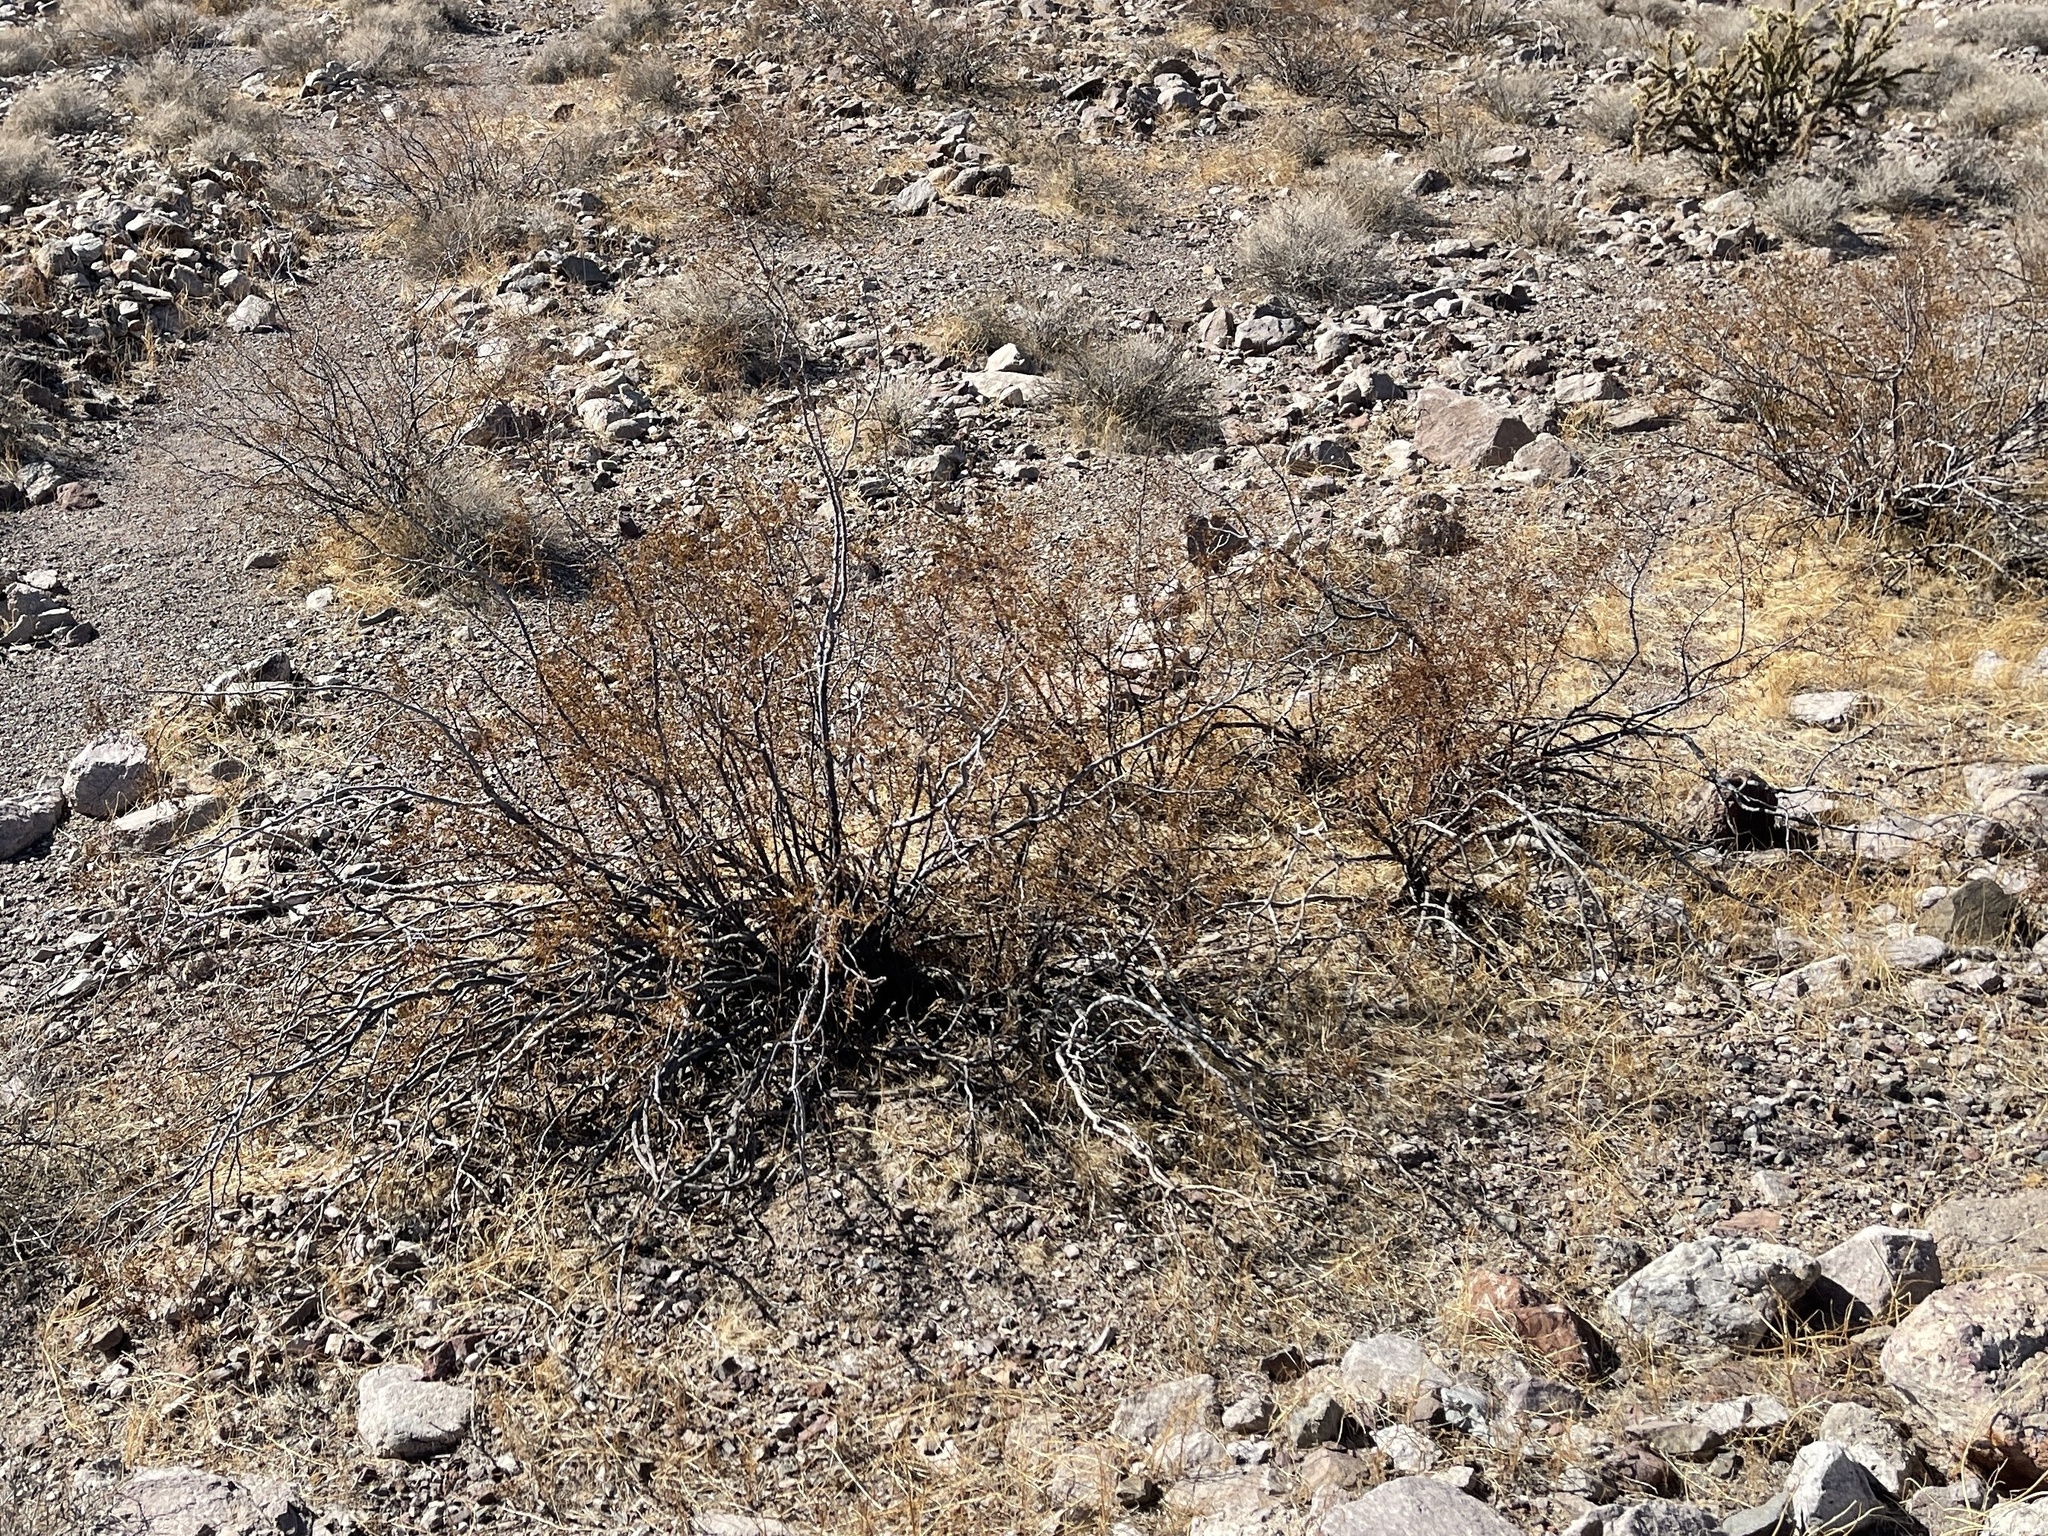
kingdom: Plantae
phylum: Tracheophyta
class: Magnoliopsida
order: Zygophyllales
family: Zygophyllaceae
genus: Larrea
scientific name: Larrea tridentata
